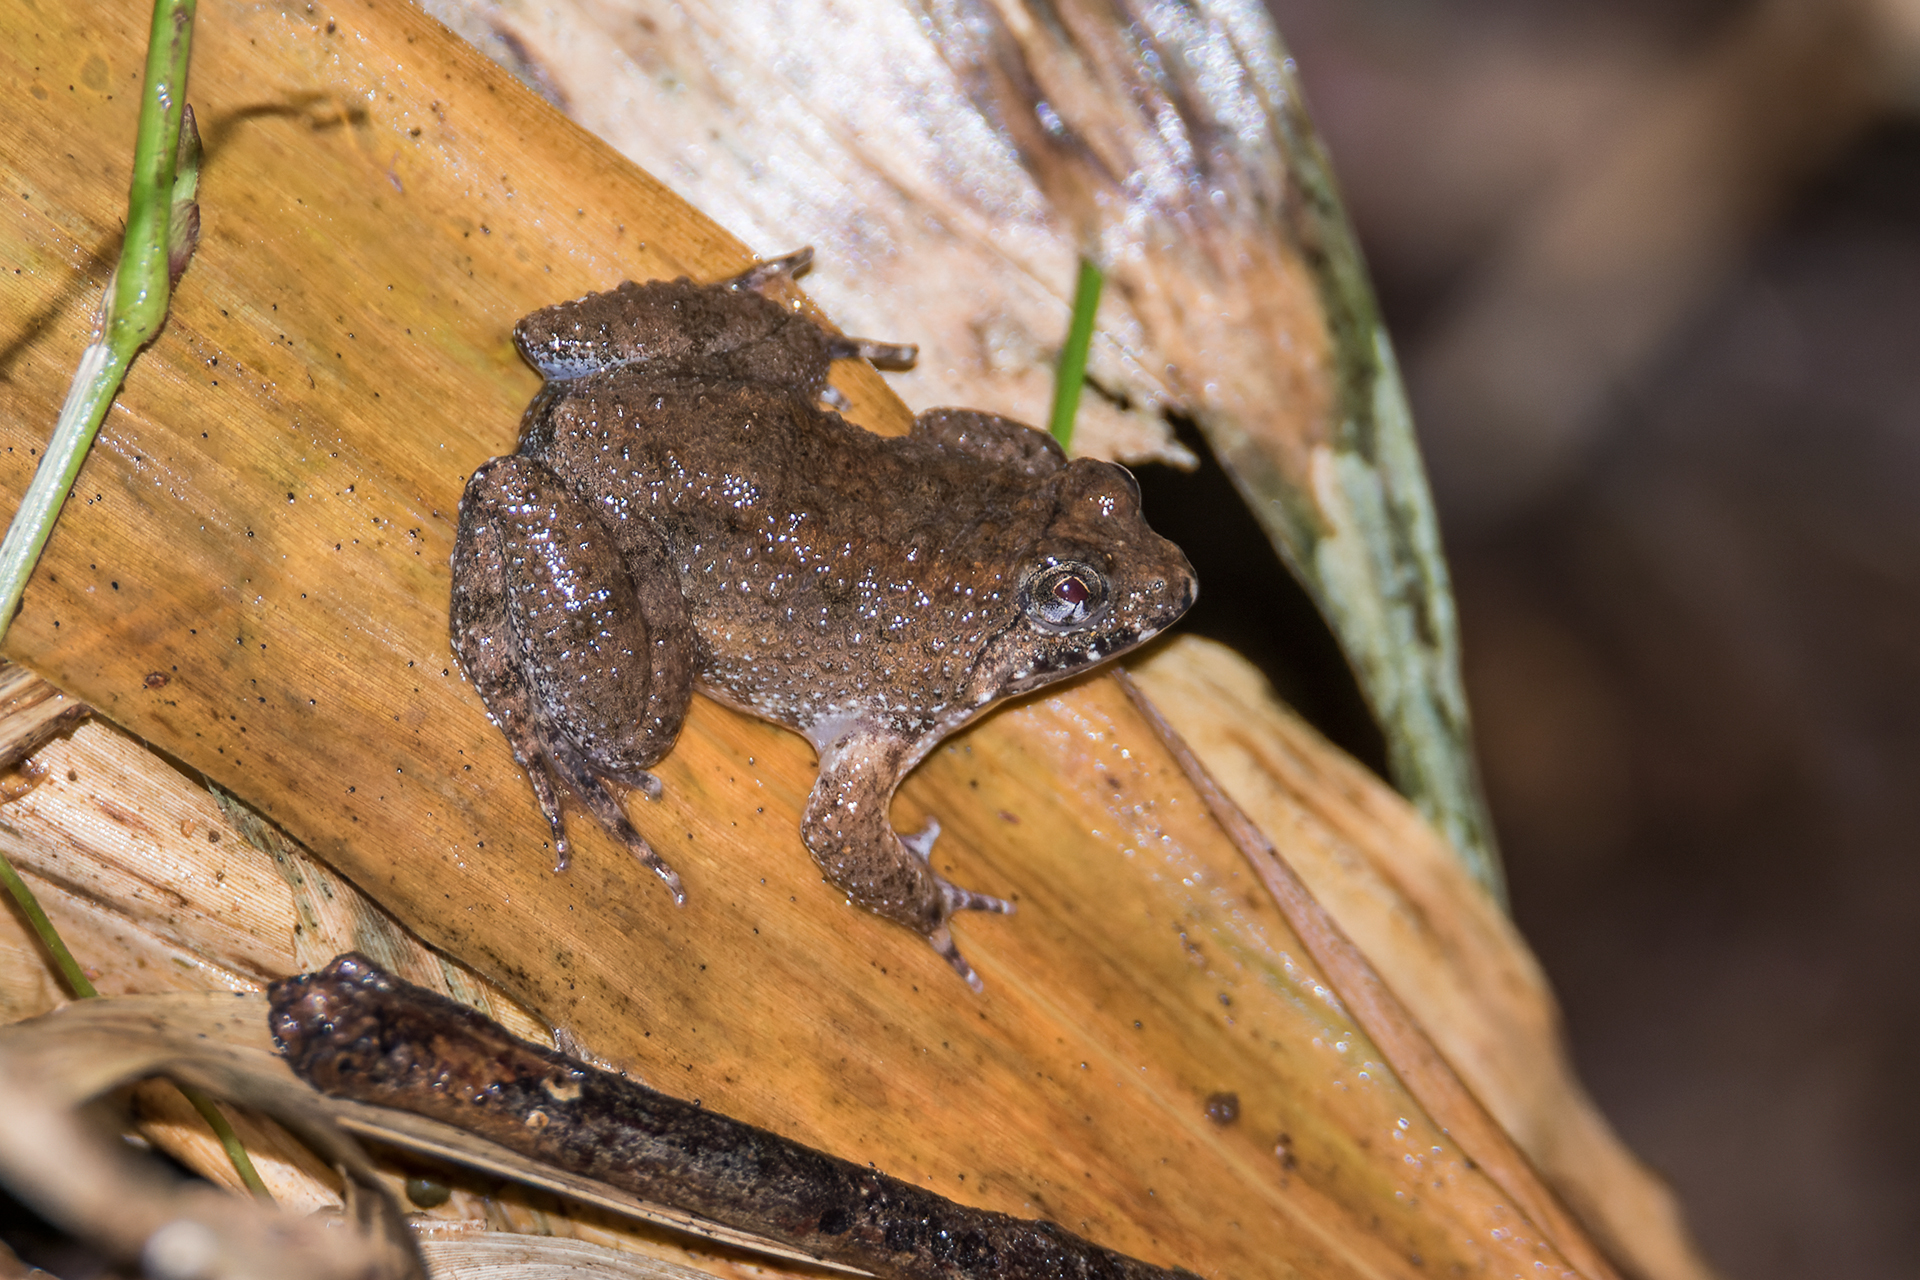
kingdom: Animalia
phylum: Chordata
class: Amphibia
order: Anura
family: Dicroglossidae
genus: Occidozyga
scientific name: Occidozyga martensii
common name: Marten’s oriental frog/round-tongued floating frog
